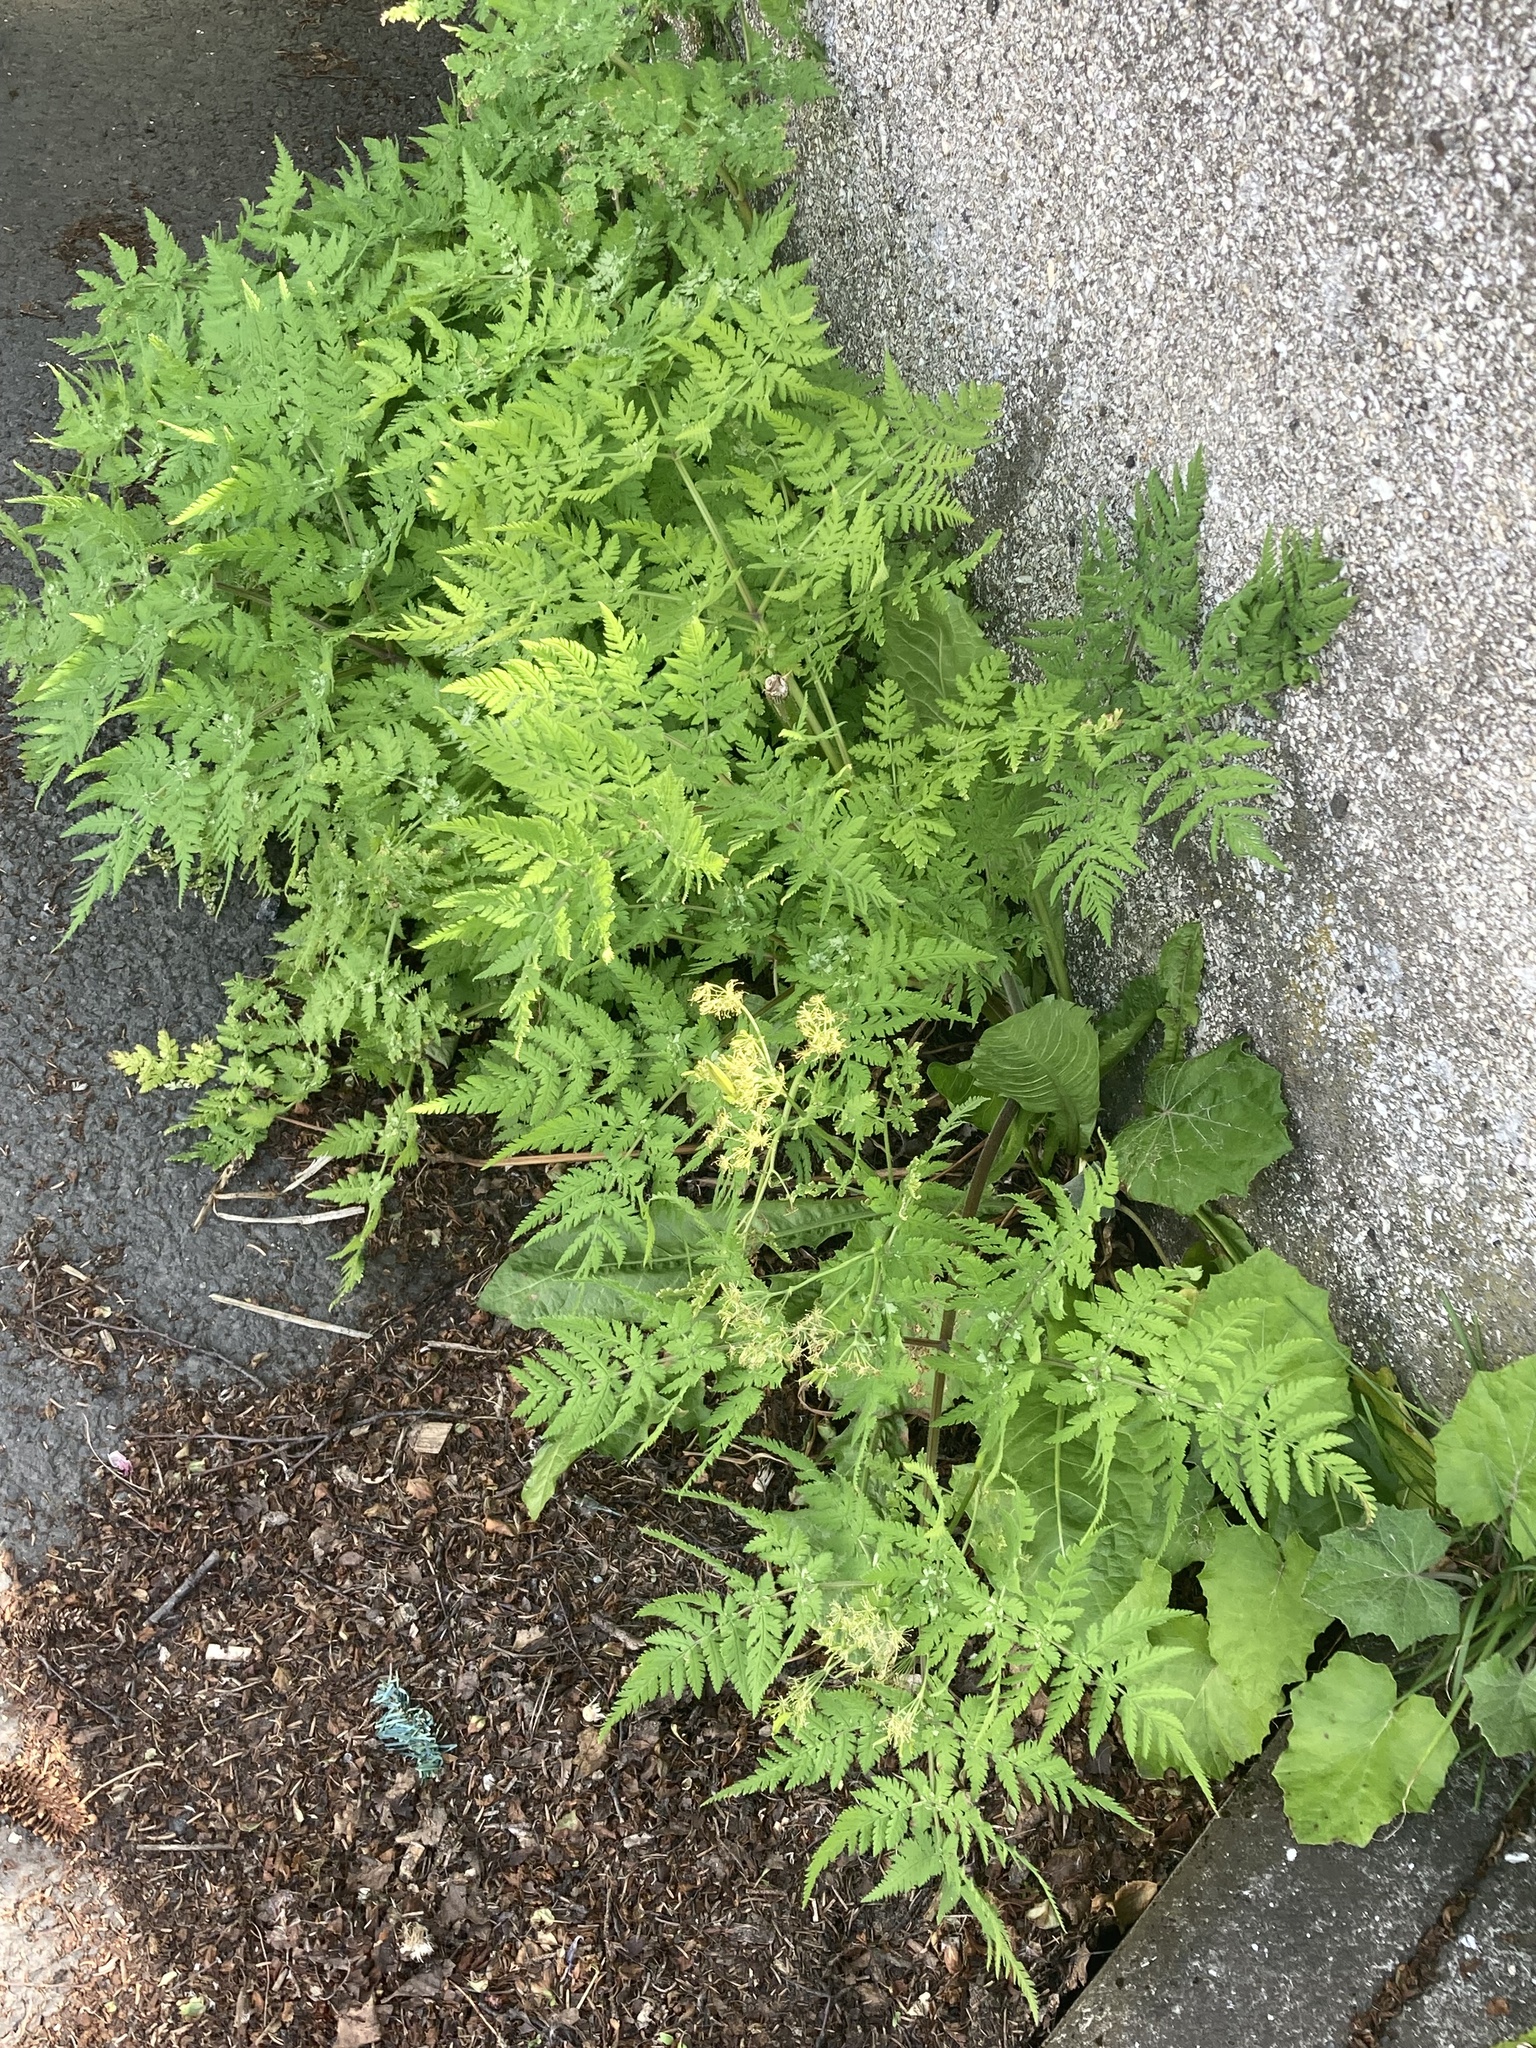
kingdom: Plantae
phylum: Tracheophyta
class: Magnoliopsida
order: Apiales
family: Apiaceae
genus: Myrrhis
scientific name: Myrrhis odorata
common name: Sweet cicely
